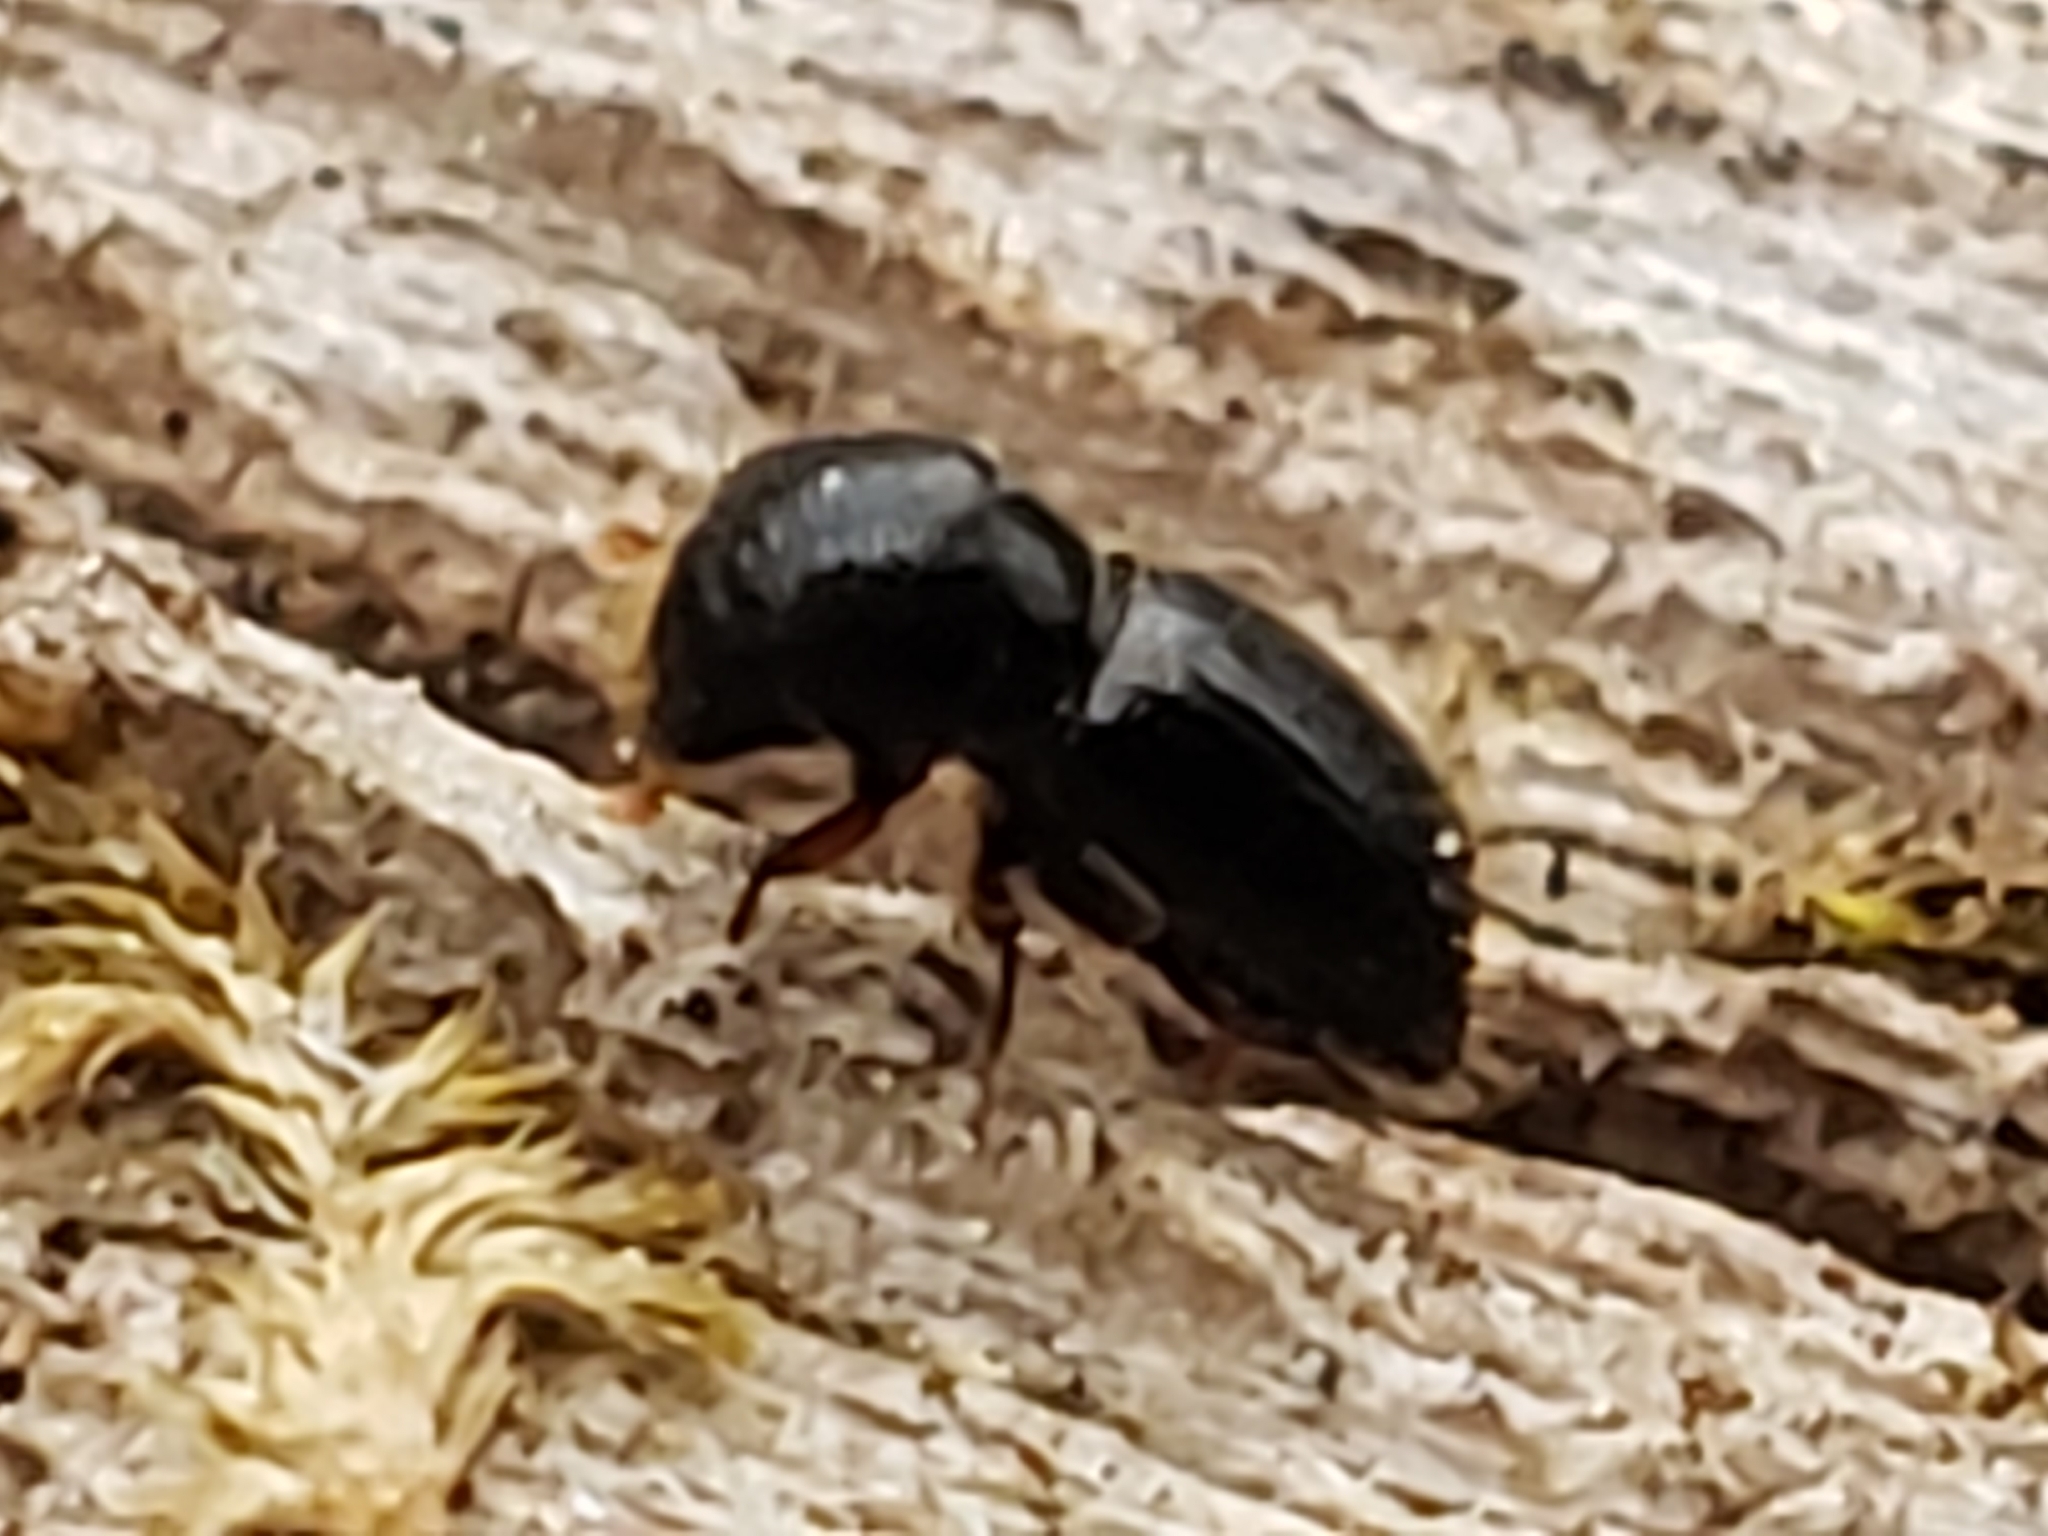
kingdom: Animalia
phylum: Arthropoda
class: Insecta
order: Coleoptera
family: Curculionidae
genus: Euwallacea
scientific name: Euwallacea validus
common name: Bark beetle
